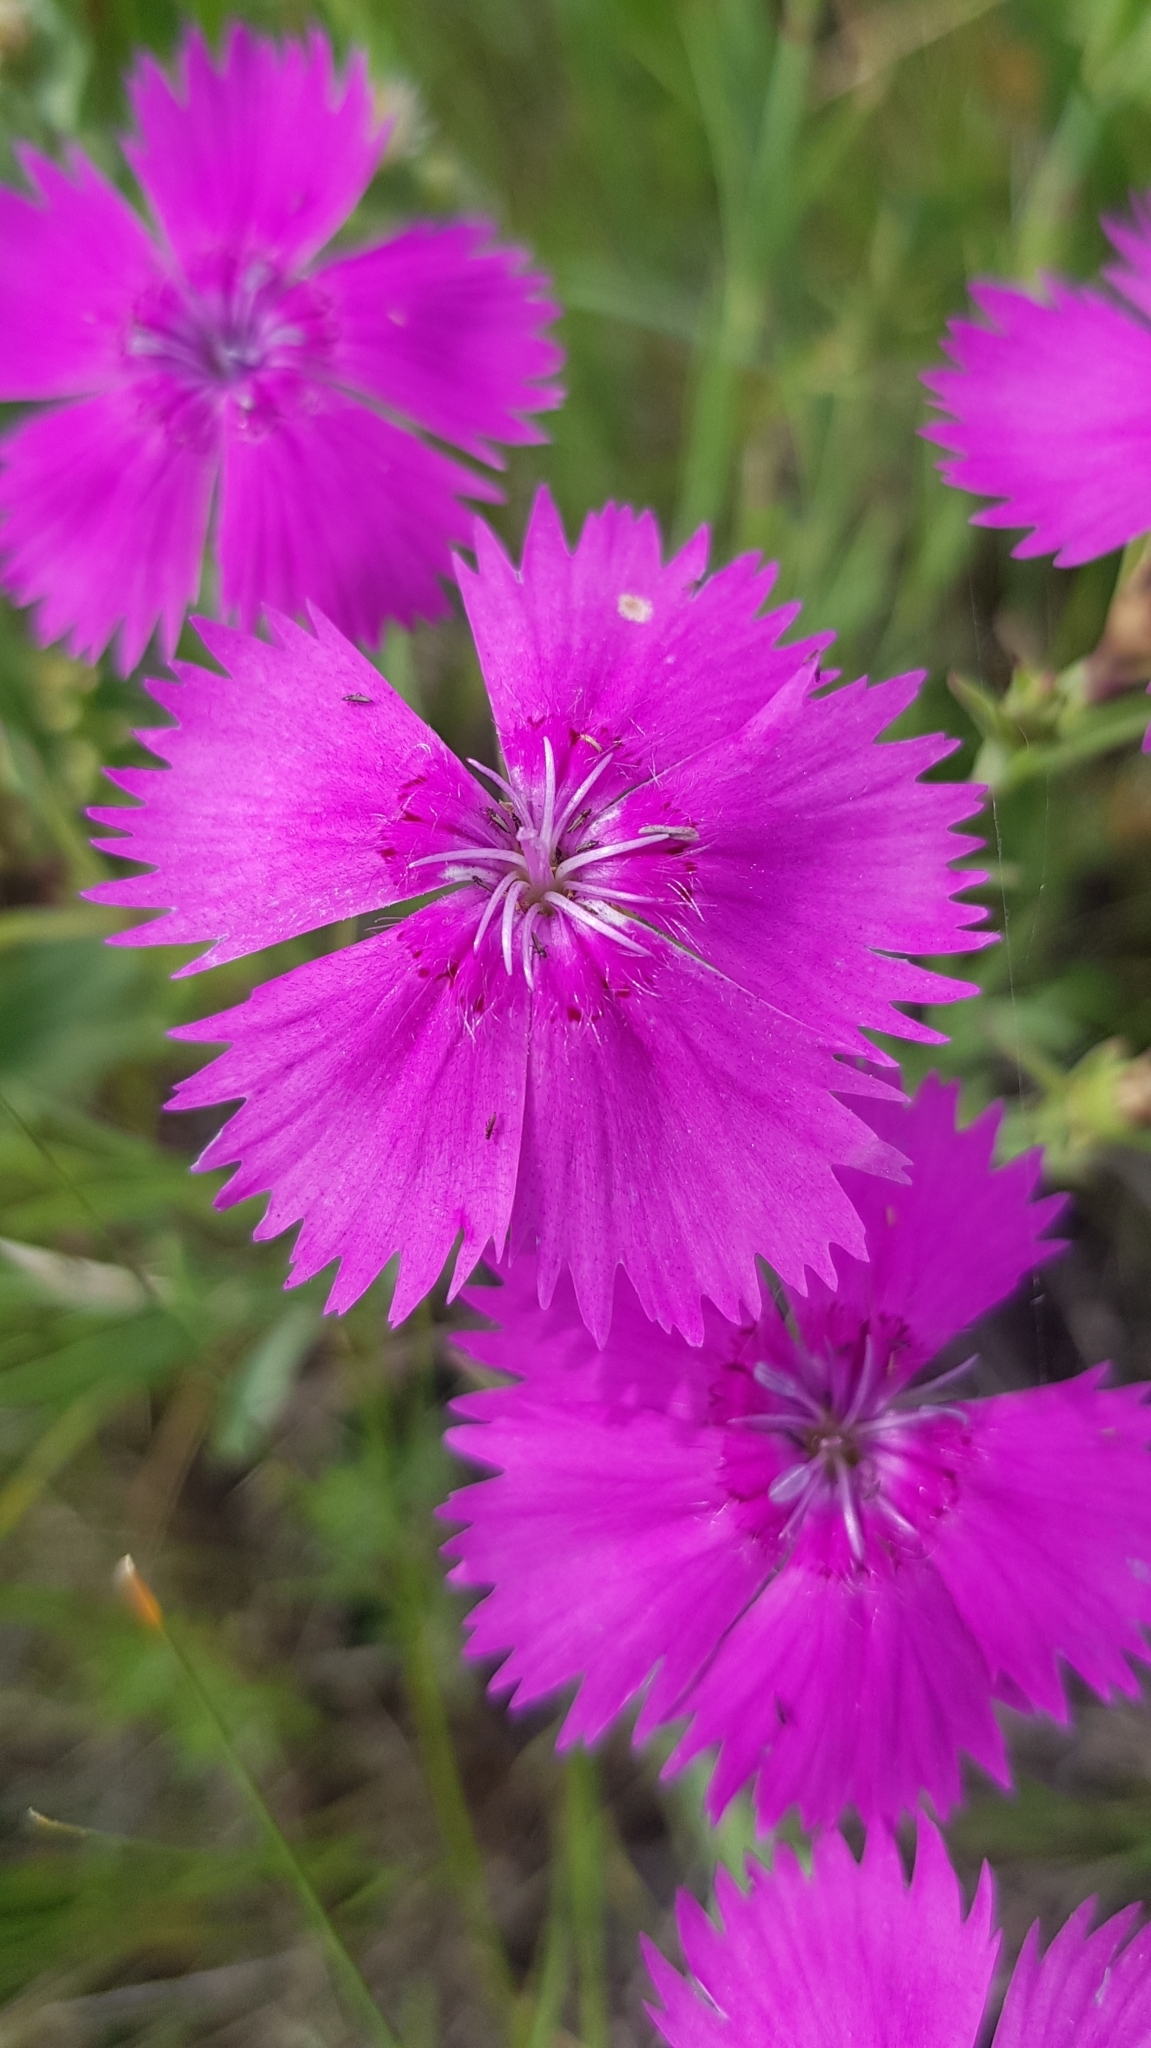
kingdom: Plantae
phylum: Tracheophyta
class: Magnoliopsida
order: Caryophyllales
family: Caryophyllaceae
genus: Dianthus
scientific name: Dianthus chinensis
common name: Rainbow pink
